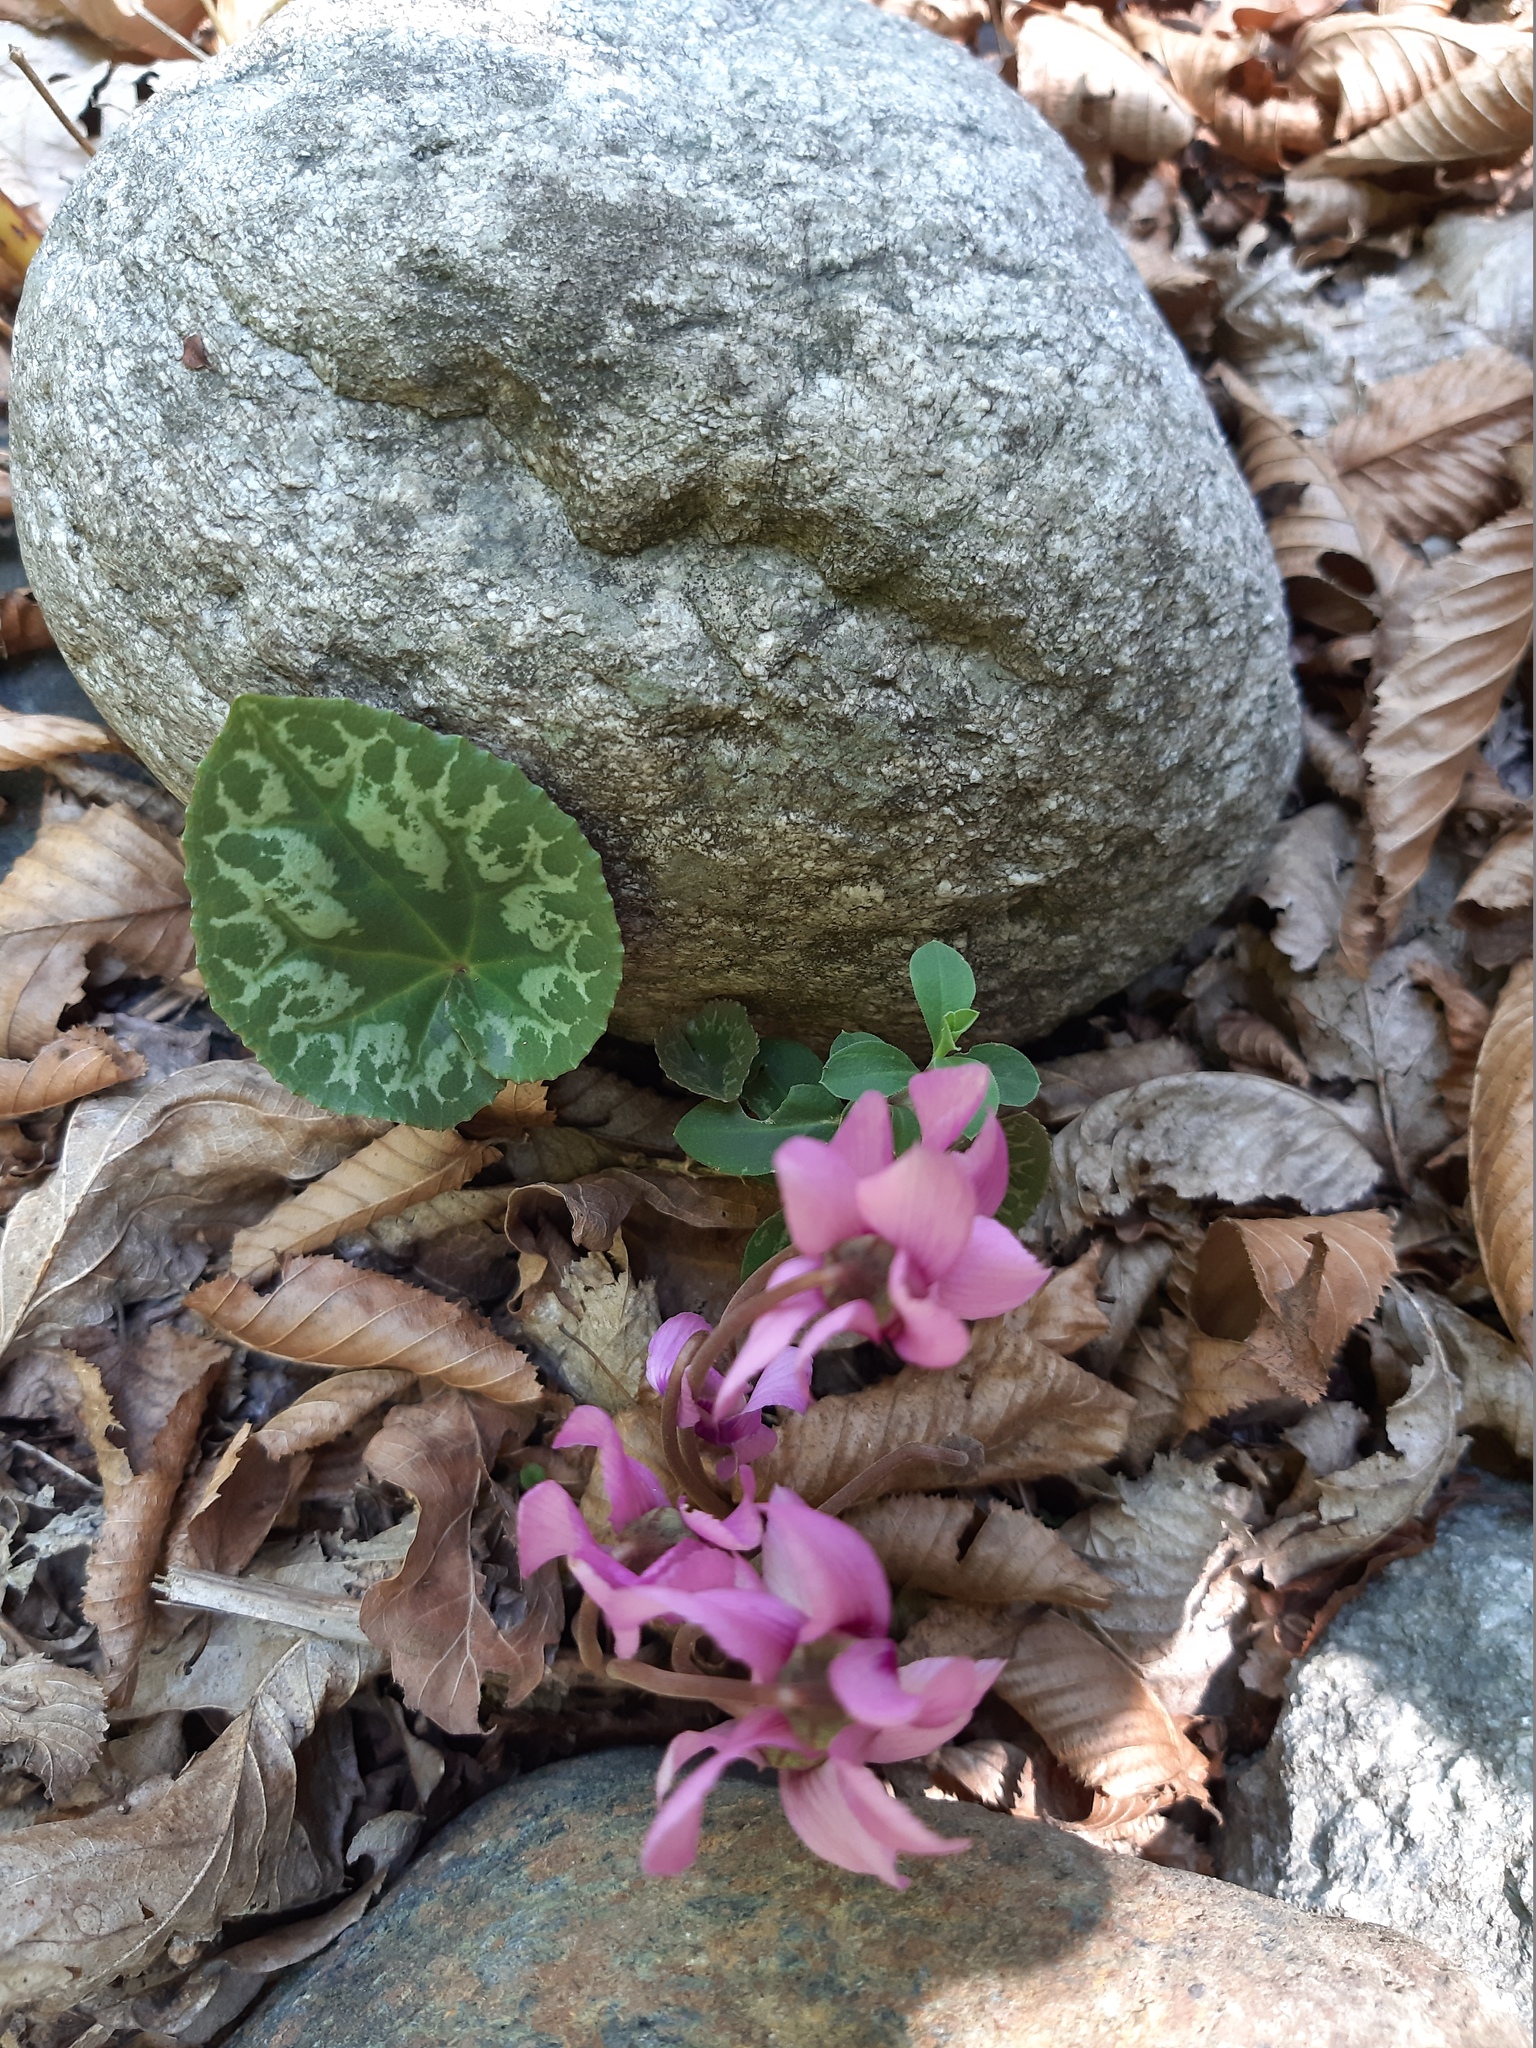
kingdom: Plantae
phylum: Tracheophyta
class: Magnoliopsida
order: Ericales
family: Primulaceae
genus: Cyclamen
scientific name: Cyclamen purpurascens
